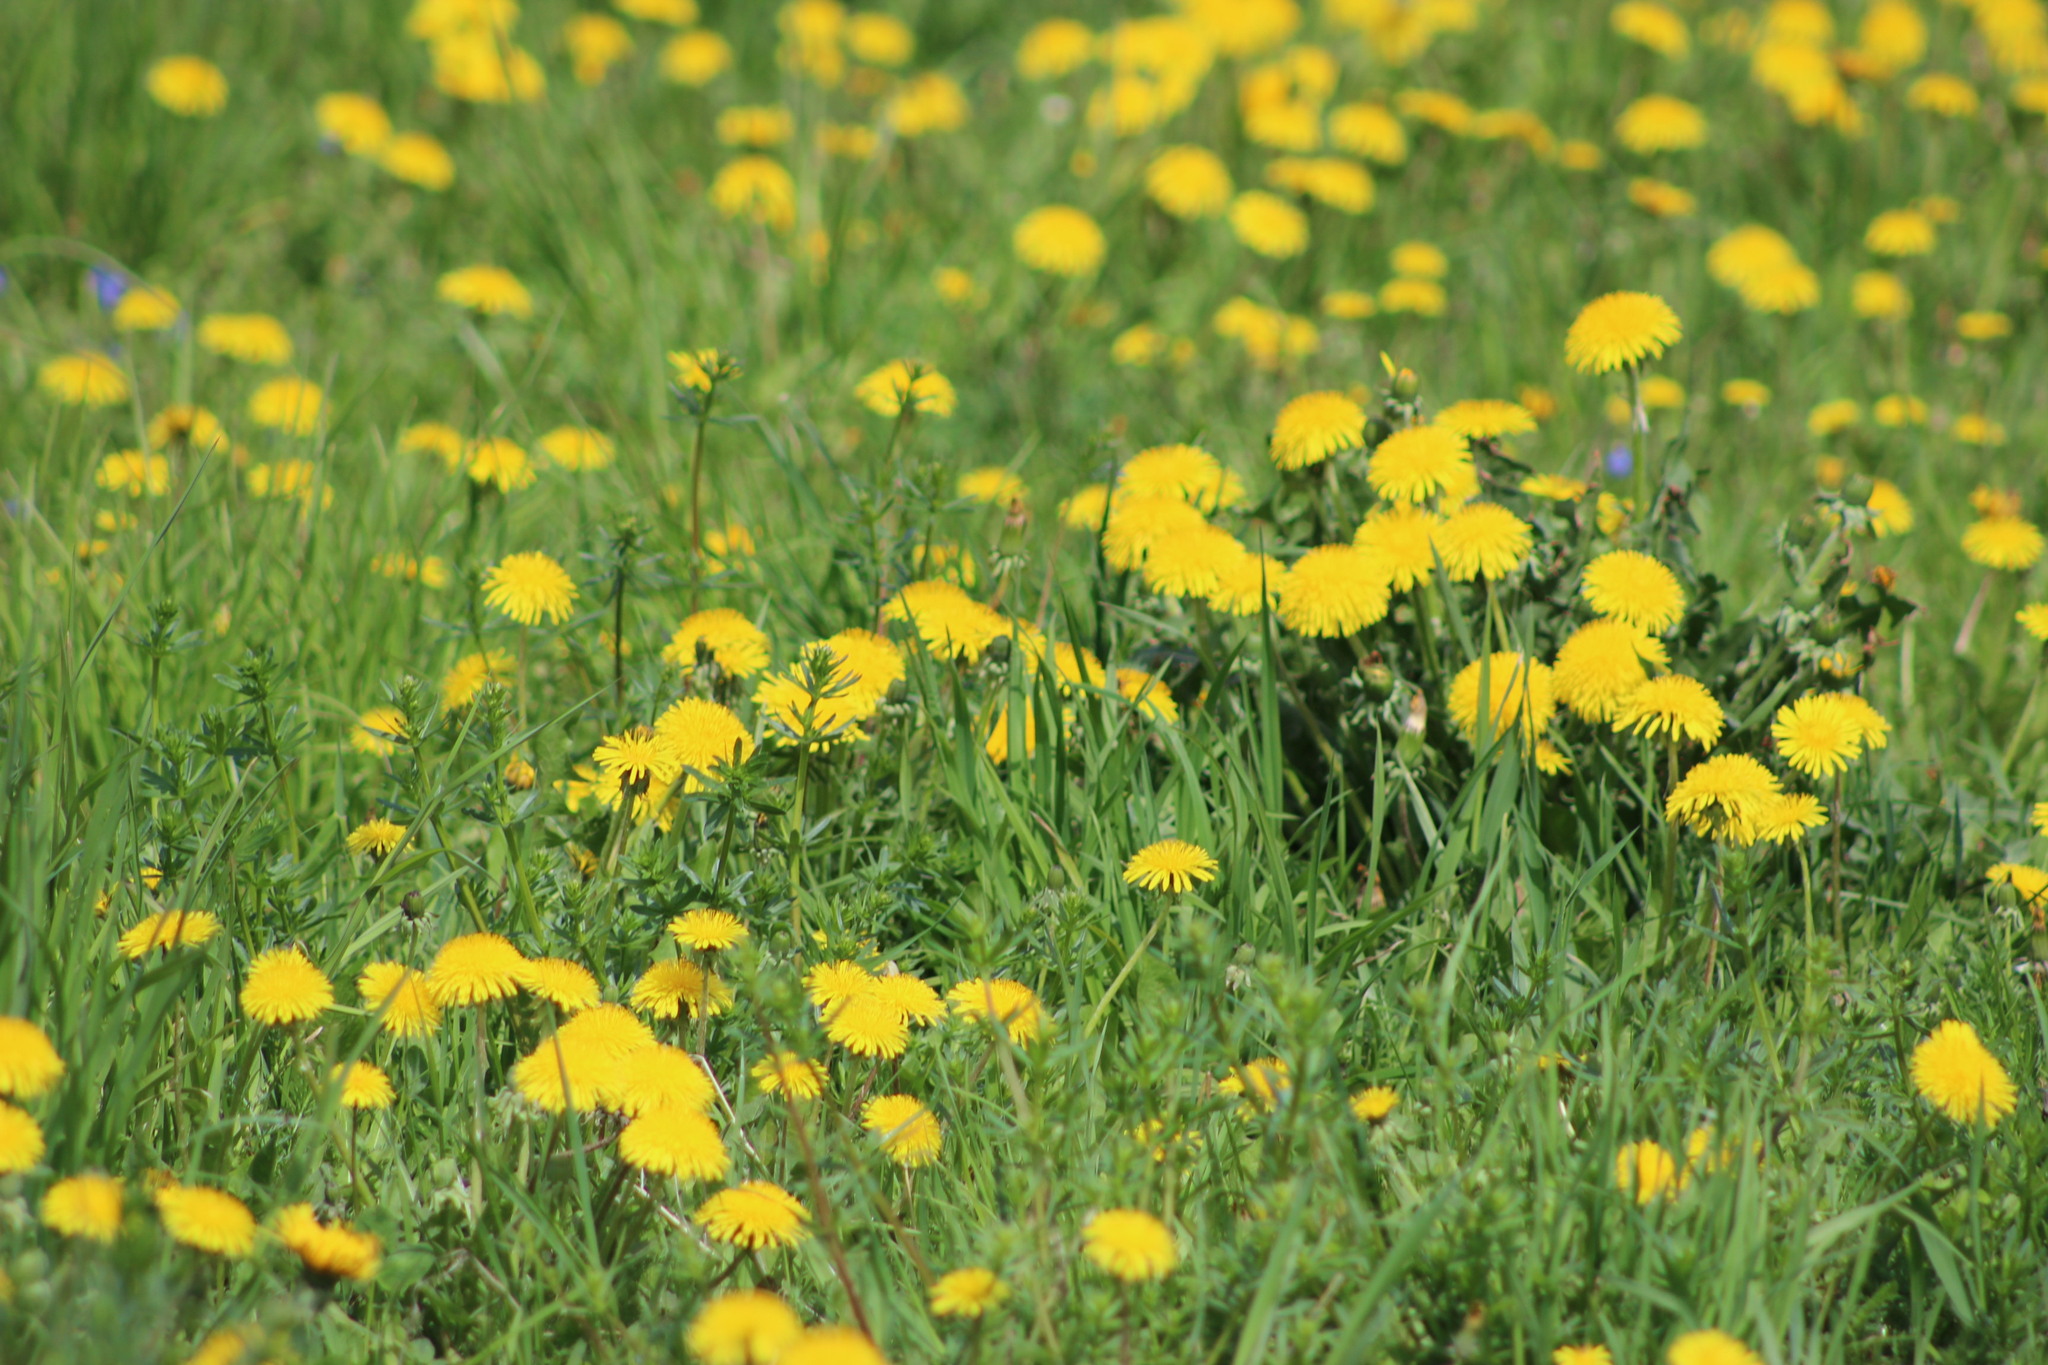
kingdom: Plantae
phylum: Tracheophyta
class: Magnoliopsida
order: Asterales
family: Asteraceae
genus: Taraxacum
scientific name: Taraxacum officinale
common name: Common dandelion
